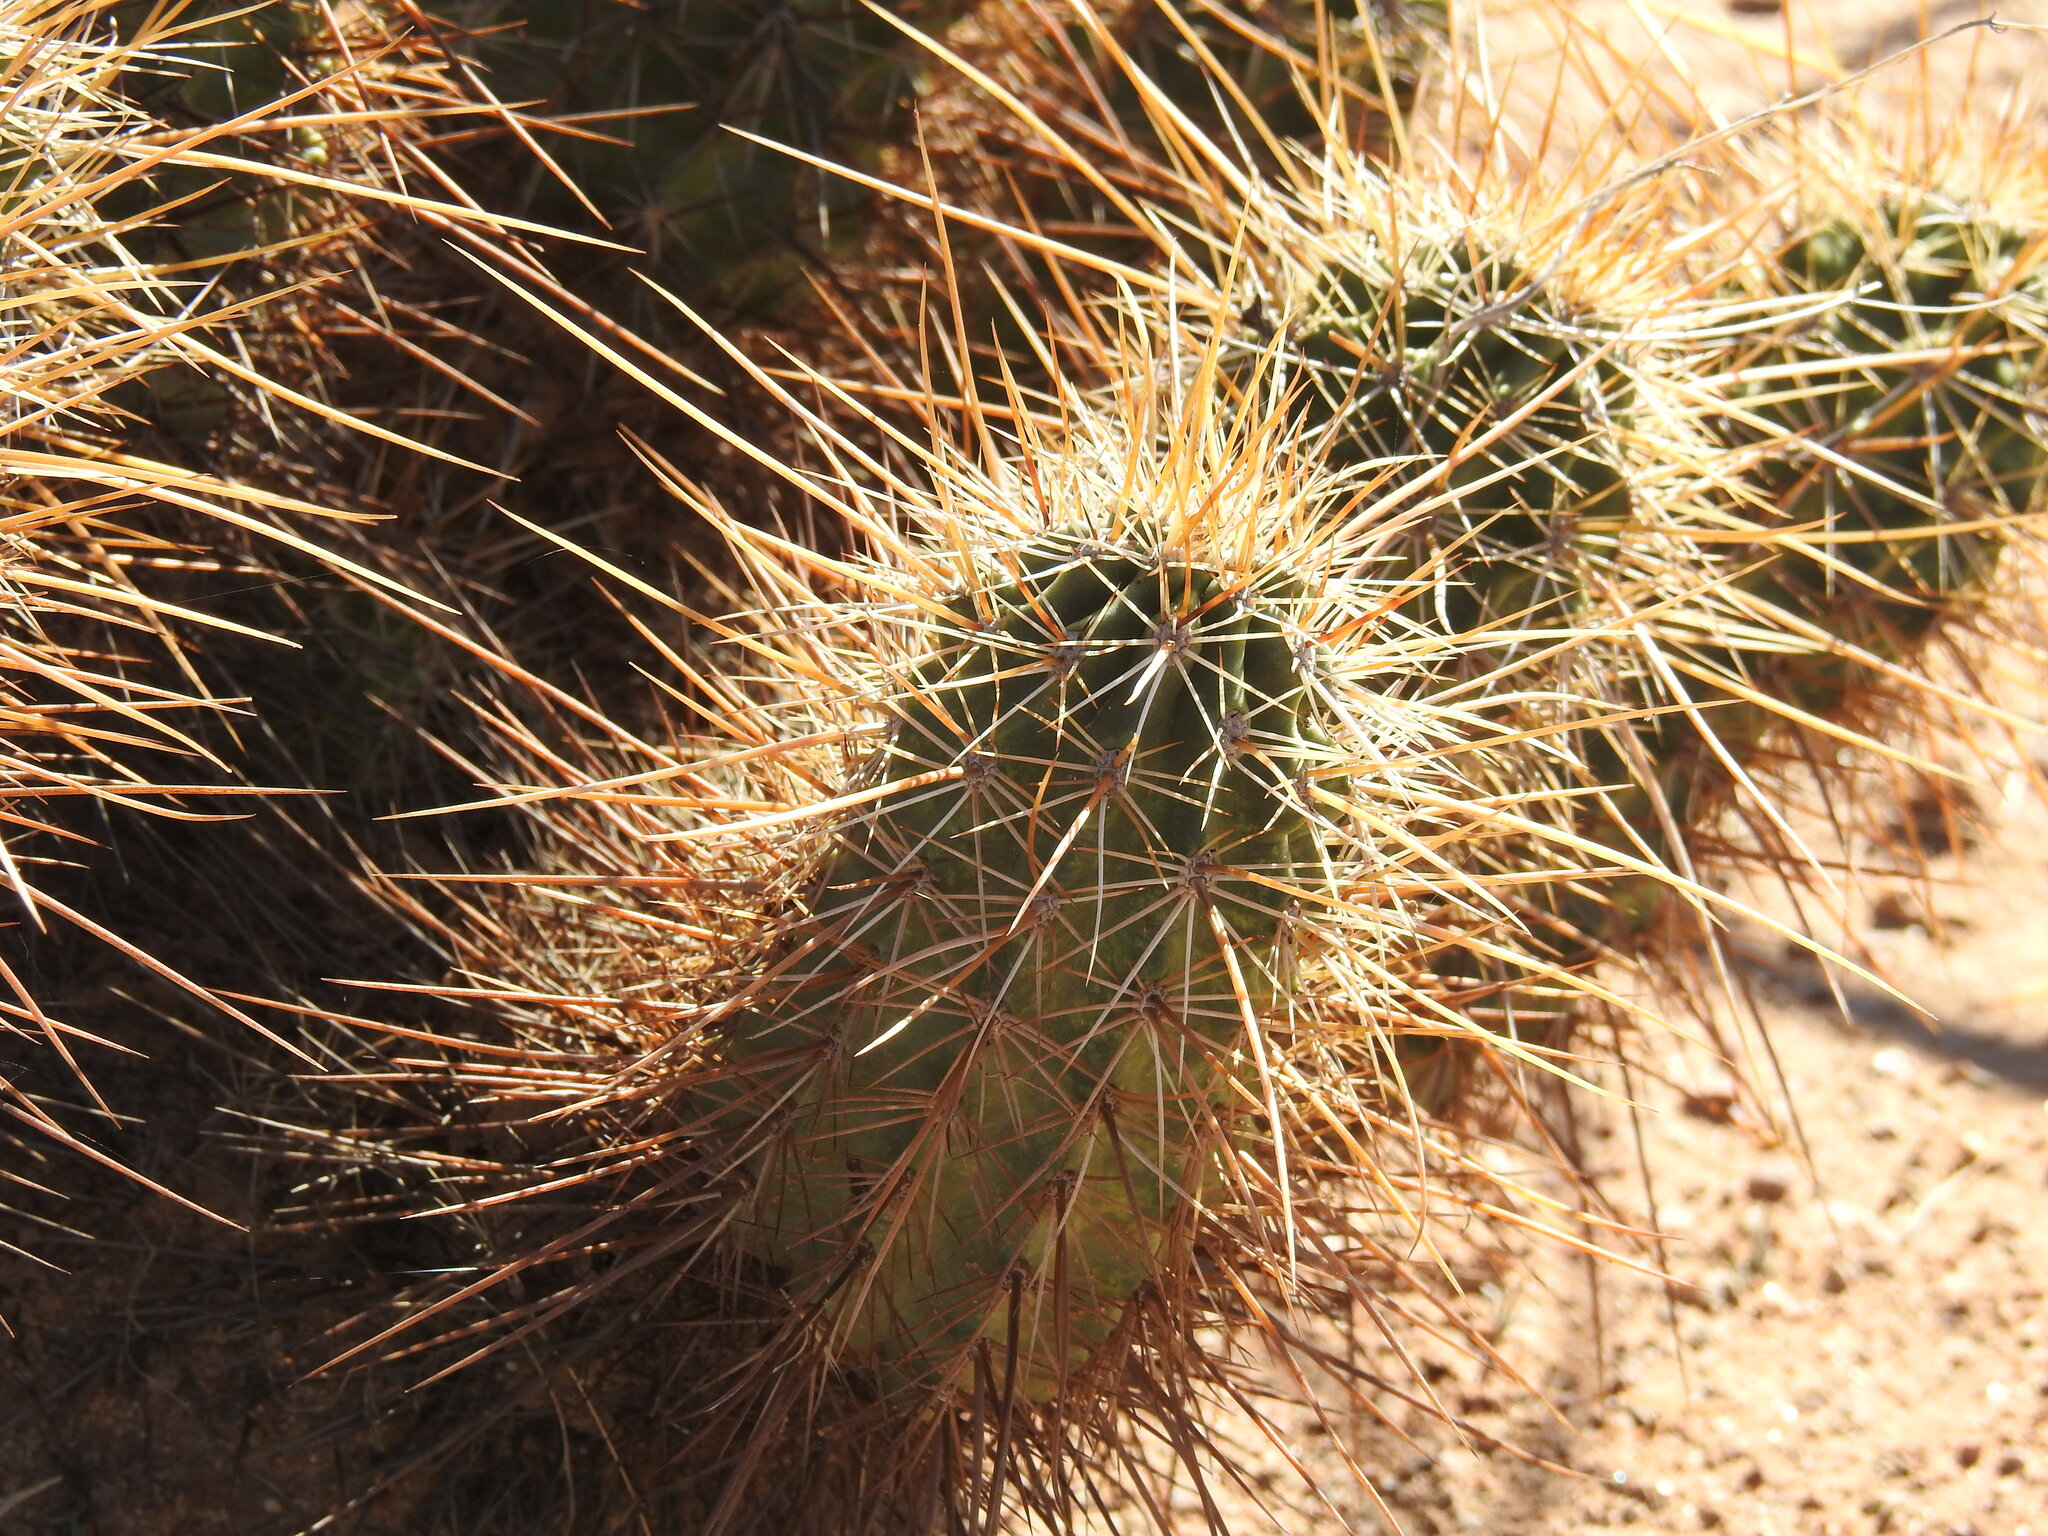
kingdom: Plantae
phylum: Tracheophyta
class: Magnoliopsida
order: Caryophyllales
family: Cactaceae
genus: Echinocereus
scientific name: Echinocereus engelmannii
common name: Engelmann's hedgehog cactus
